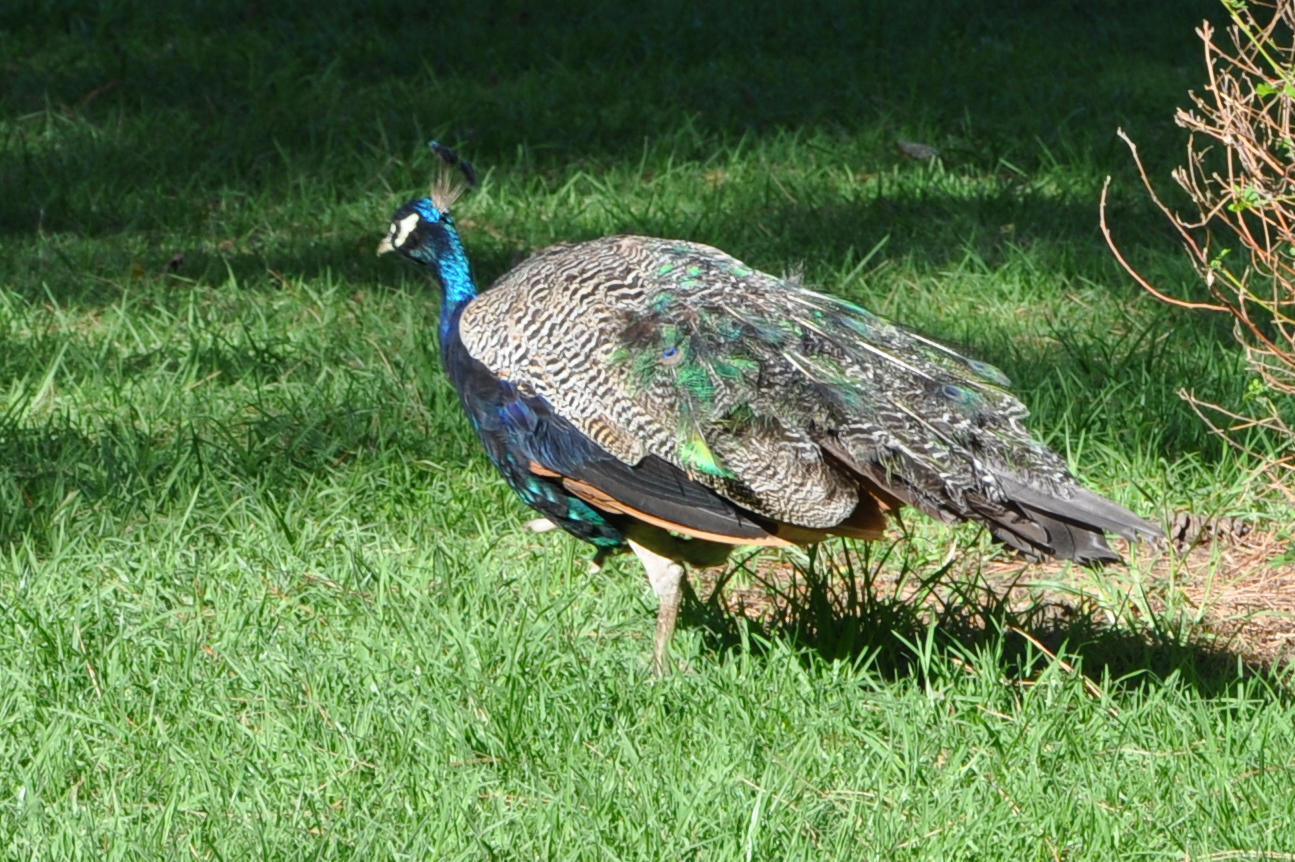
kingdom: Animalia
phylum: Chordata
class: Aves
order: Galliformes
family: Phasianidae
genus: Pavo
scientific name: Pavo cristatus
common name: Indian peafowl
